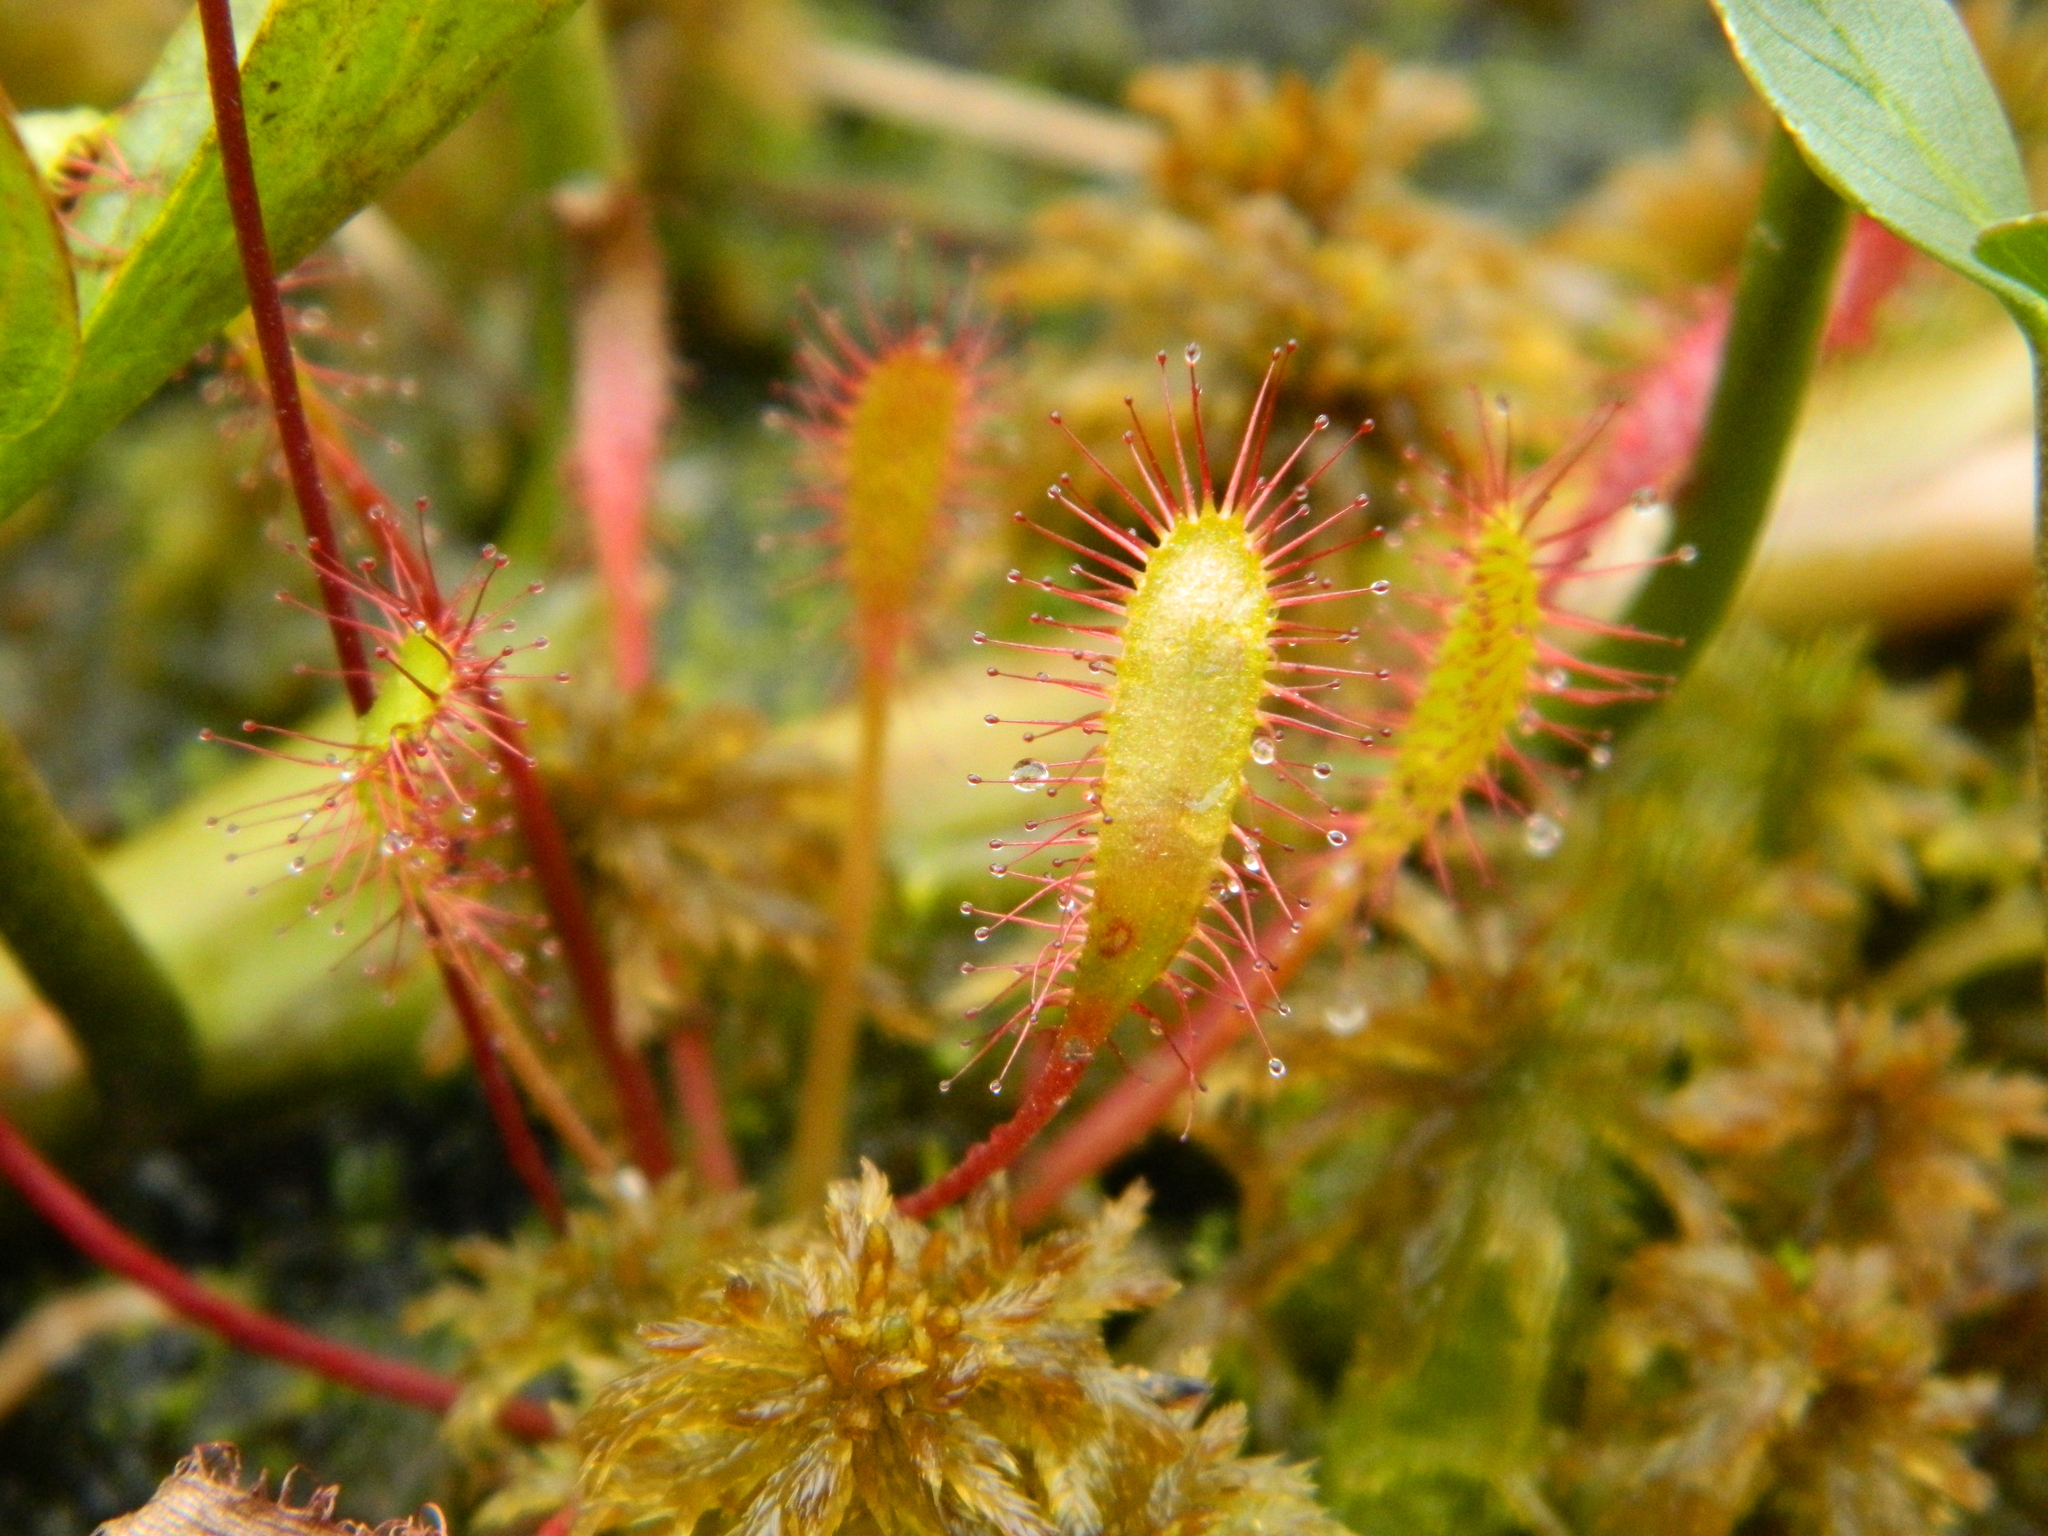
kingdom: Plantae
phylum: Tracheophyta
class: Magnoliopsida
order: Caryophyllales
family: Droseraceae
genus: Drosera
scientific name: Drosera anglica
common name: Great sundew
